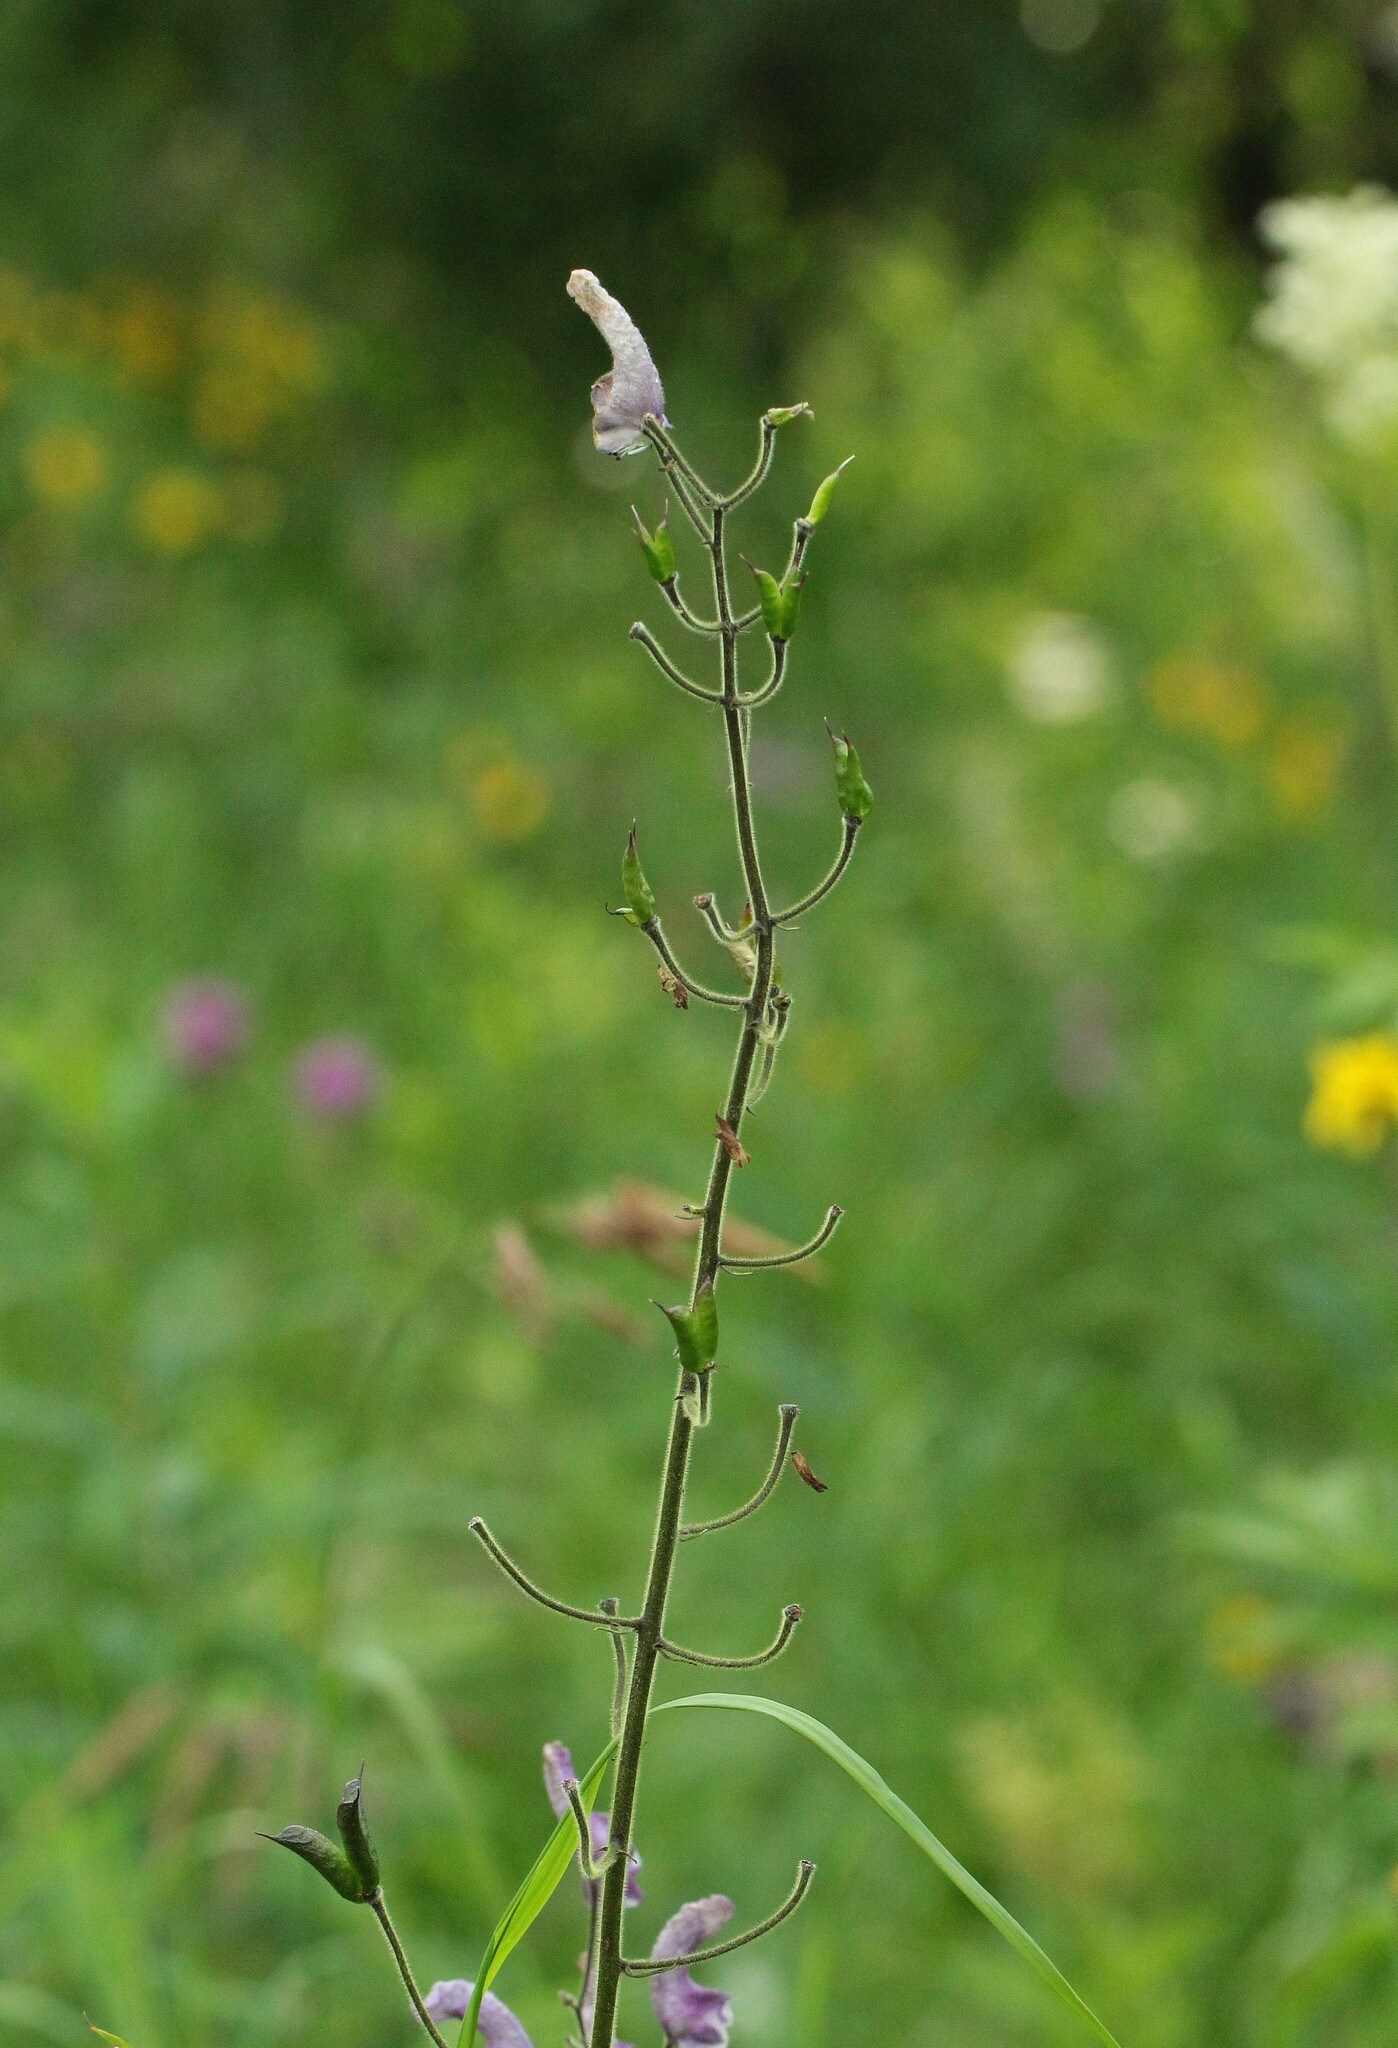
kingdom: Plantae
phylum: Tracheophyta
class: Magnoliopsida
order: Ranunculales
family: Ranunculaceae
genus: Aconitum
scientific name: Aconitum septentrionale
